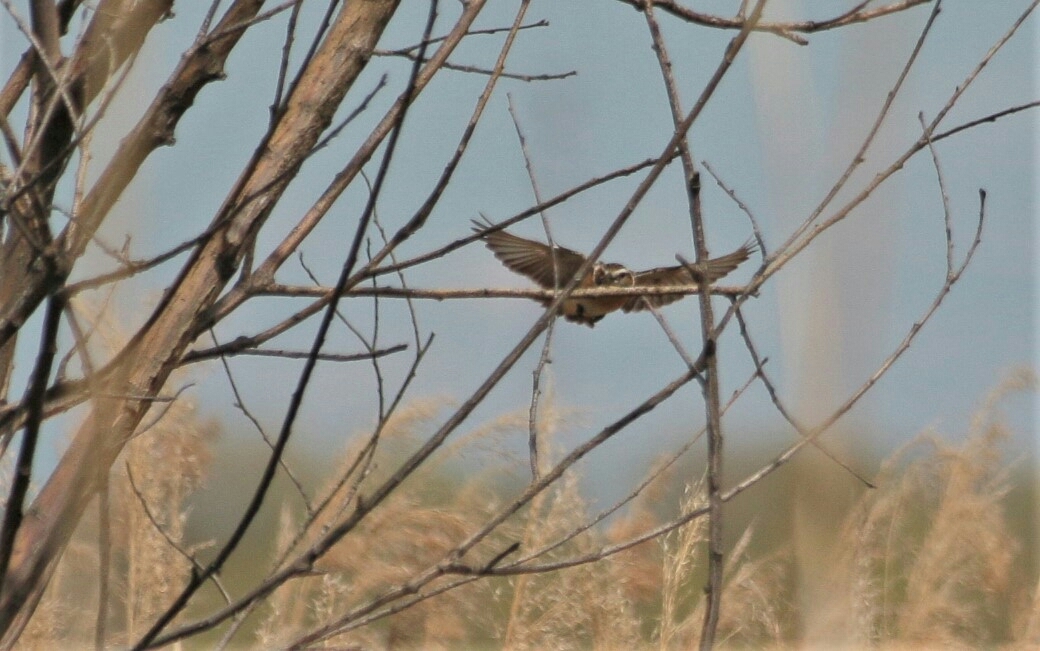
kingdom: Animalia
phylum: Chordata
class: Aves
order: Accipitriformes
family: Accipitridae
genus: Circus
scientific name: Circus aeruginosus
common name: Western marsh harrier
